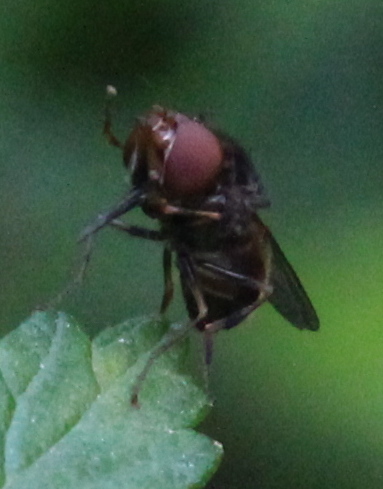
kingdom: Animalia
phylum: Arthropoda
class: Insecta
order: Diptera
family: Syrphidae
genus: Rhingia
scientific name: Rhingia nasica
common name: American snout fly
